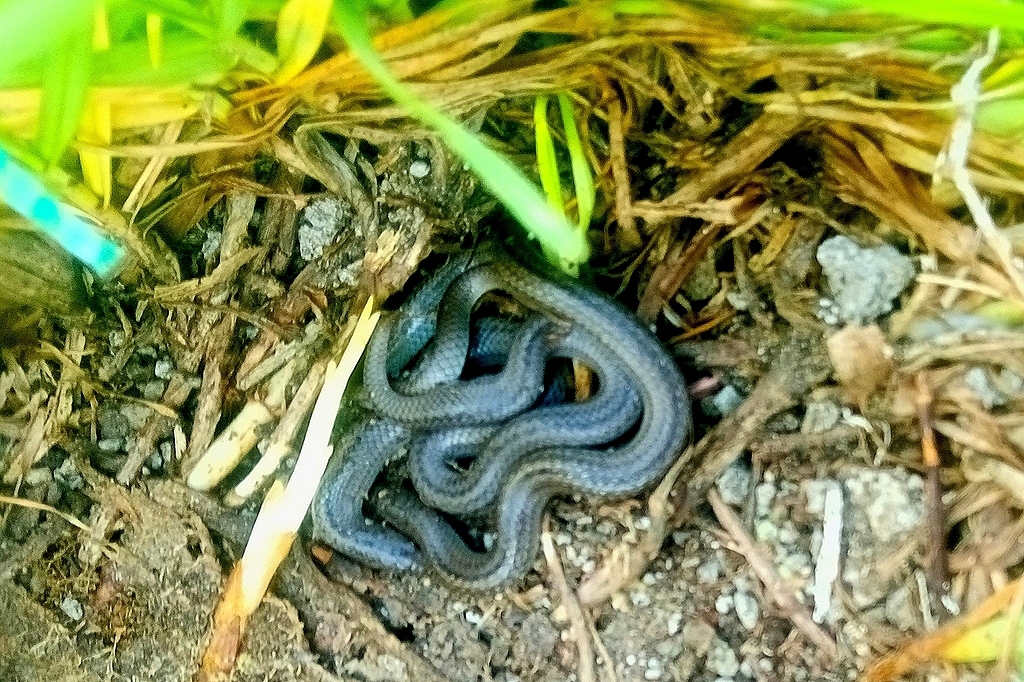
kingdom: Animalia
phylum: Chordata
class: Squamata
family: Colubridae
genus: Conopsis
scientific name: Conopsis lineata
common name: Lined tolucan earthsnake
